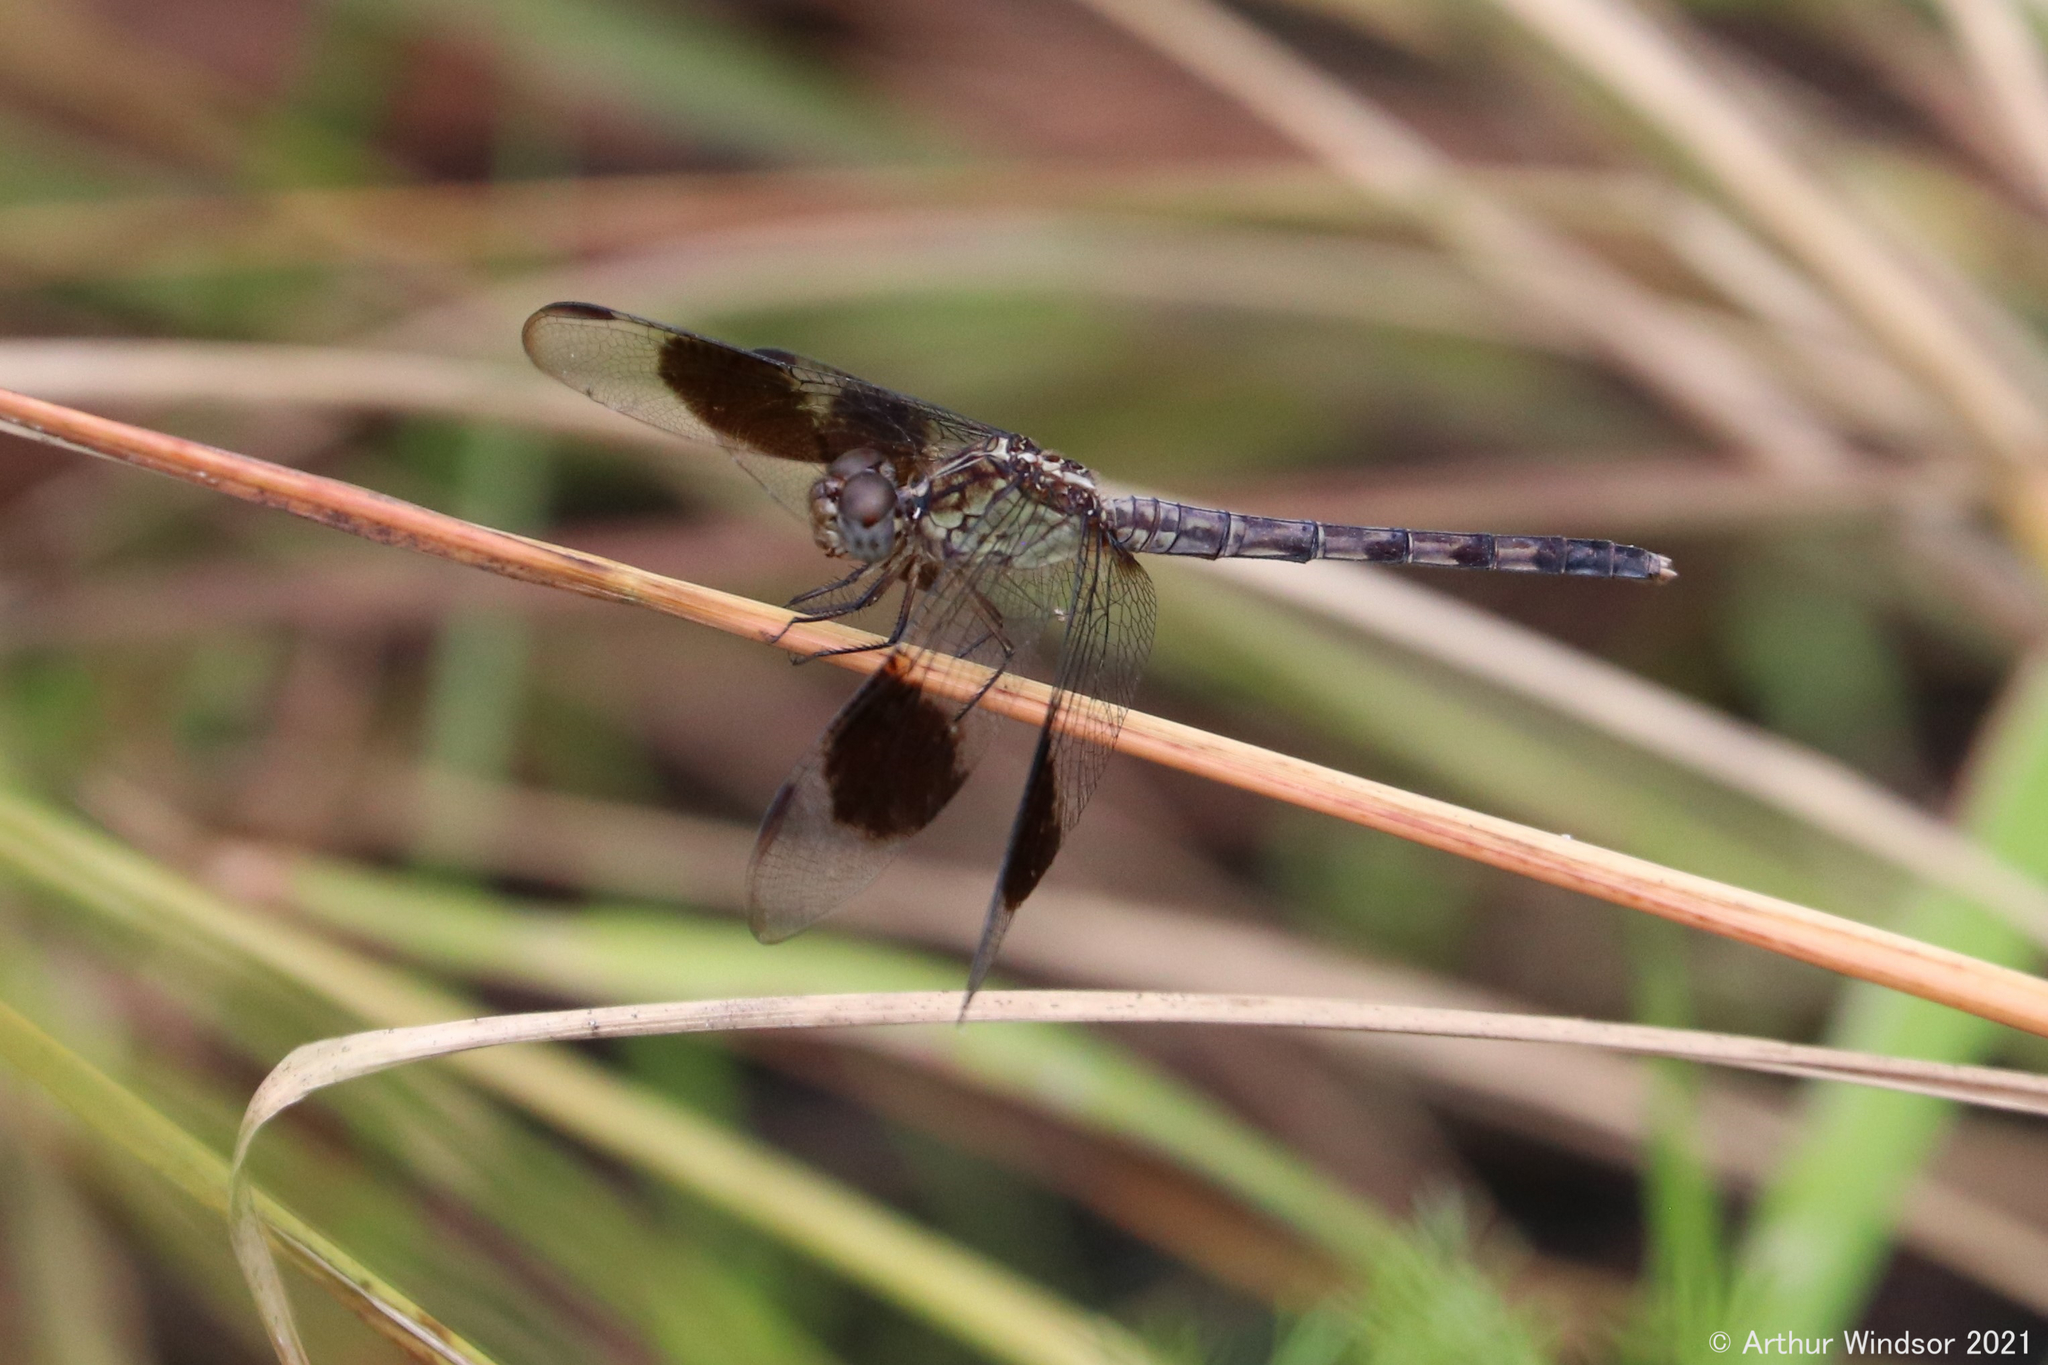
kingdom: Animalia
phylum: Arthropoda
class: Insecta
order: Odonata
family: Libellulidae
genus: Erythrodiplax
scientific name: Erythrodiplax umbrata
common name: Band-winged dragonlet
